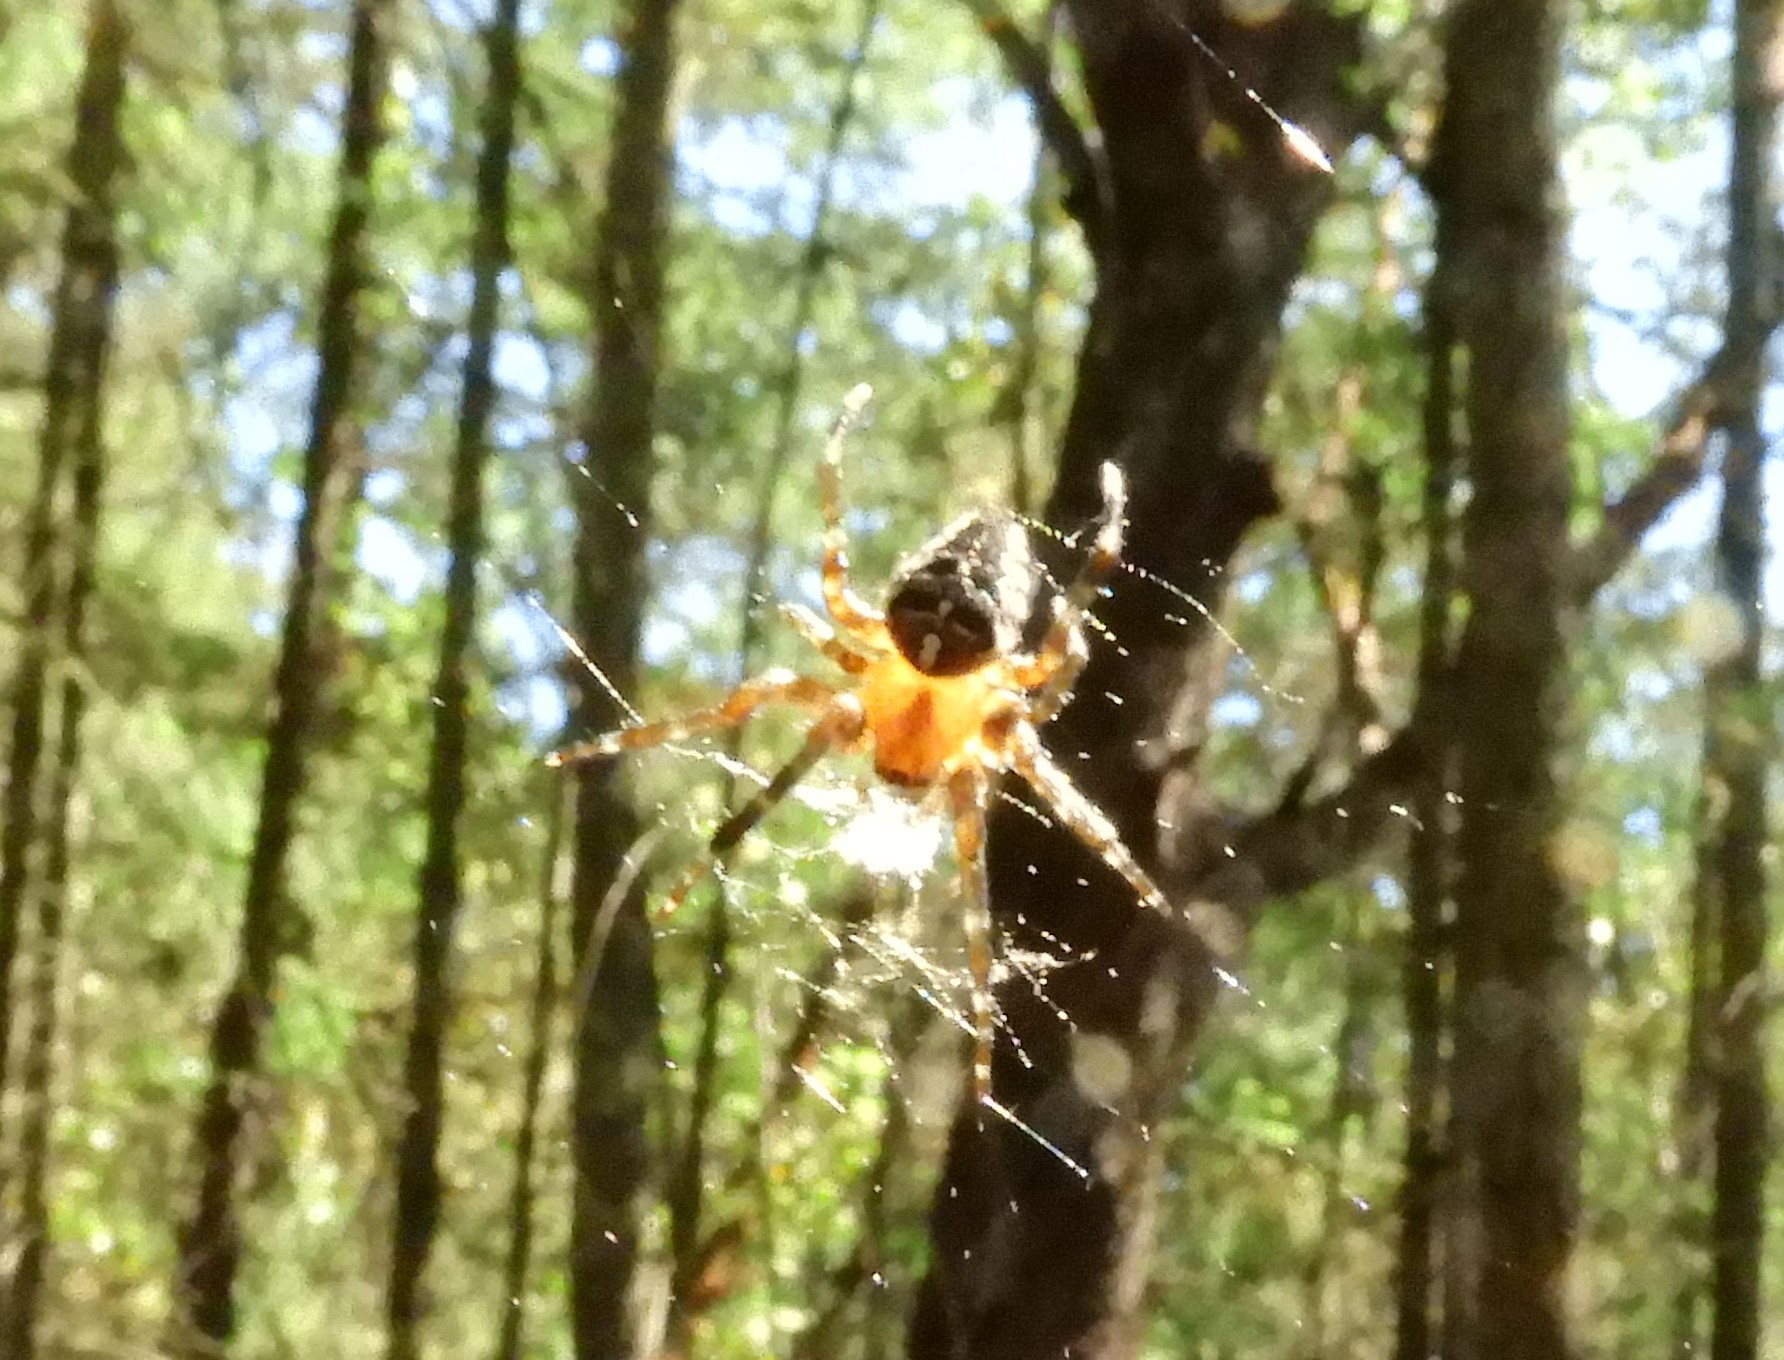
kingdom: Animalia
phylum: Arthropoda
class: Arachnida
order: Araneae
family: Araneidae
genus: Araneus
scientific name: Araneus diadematus
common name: Cross orbweaver
